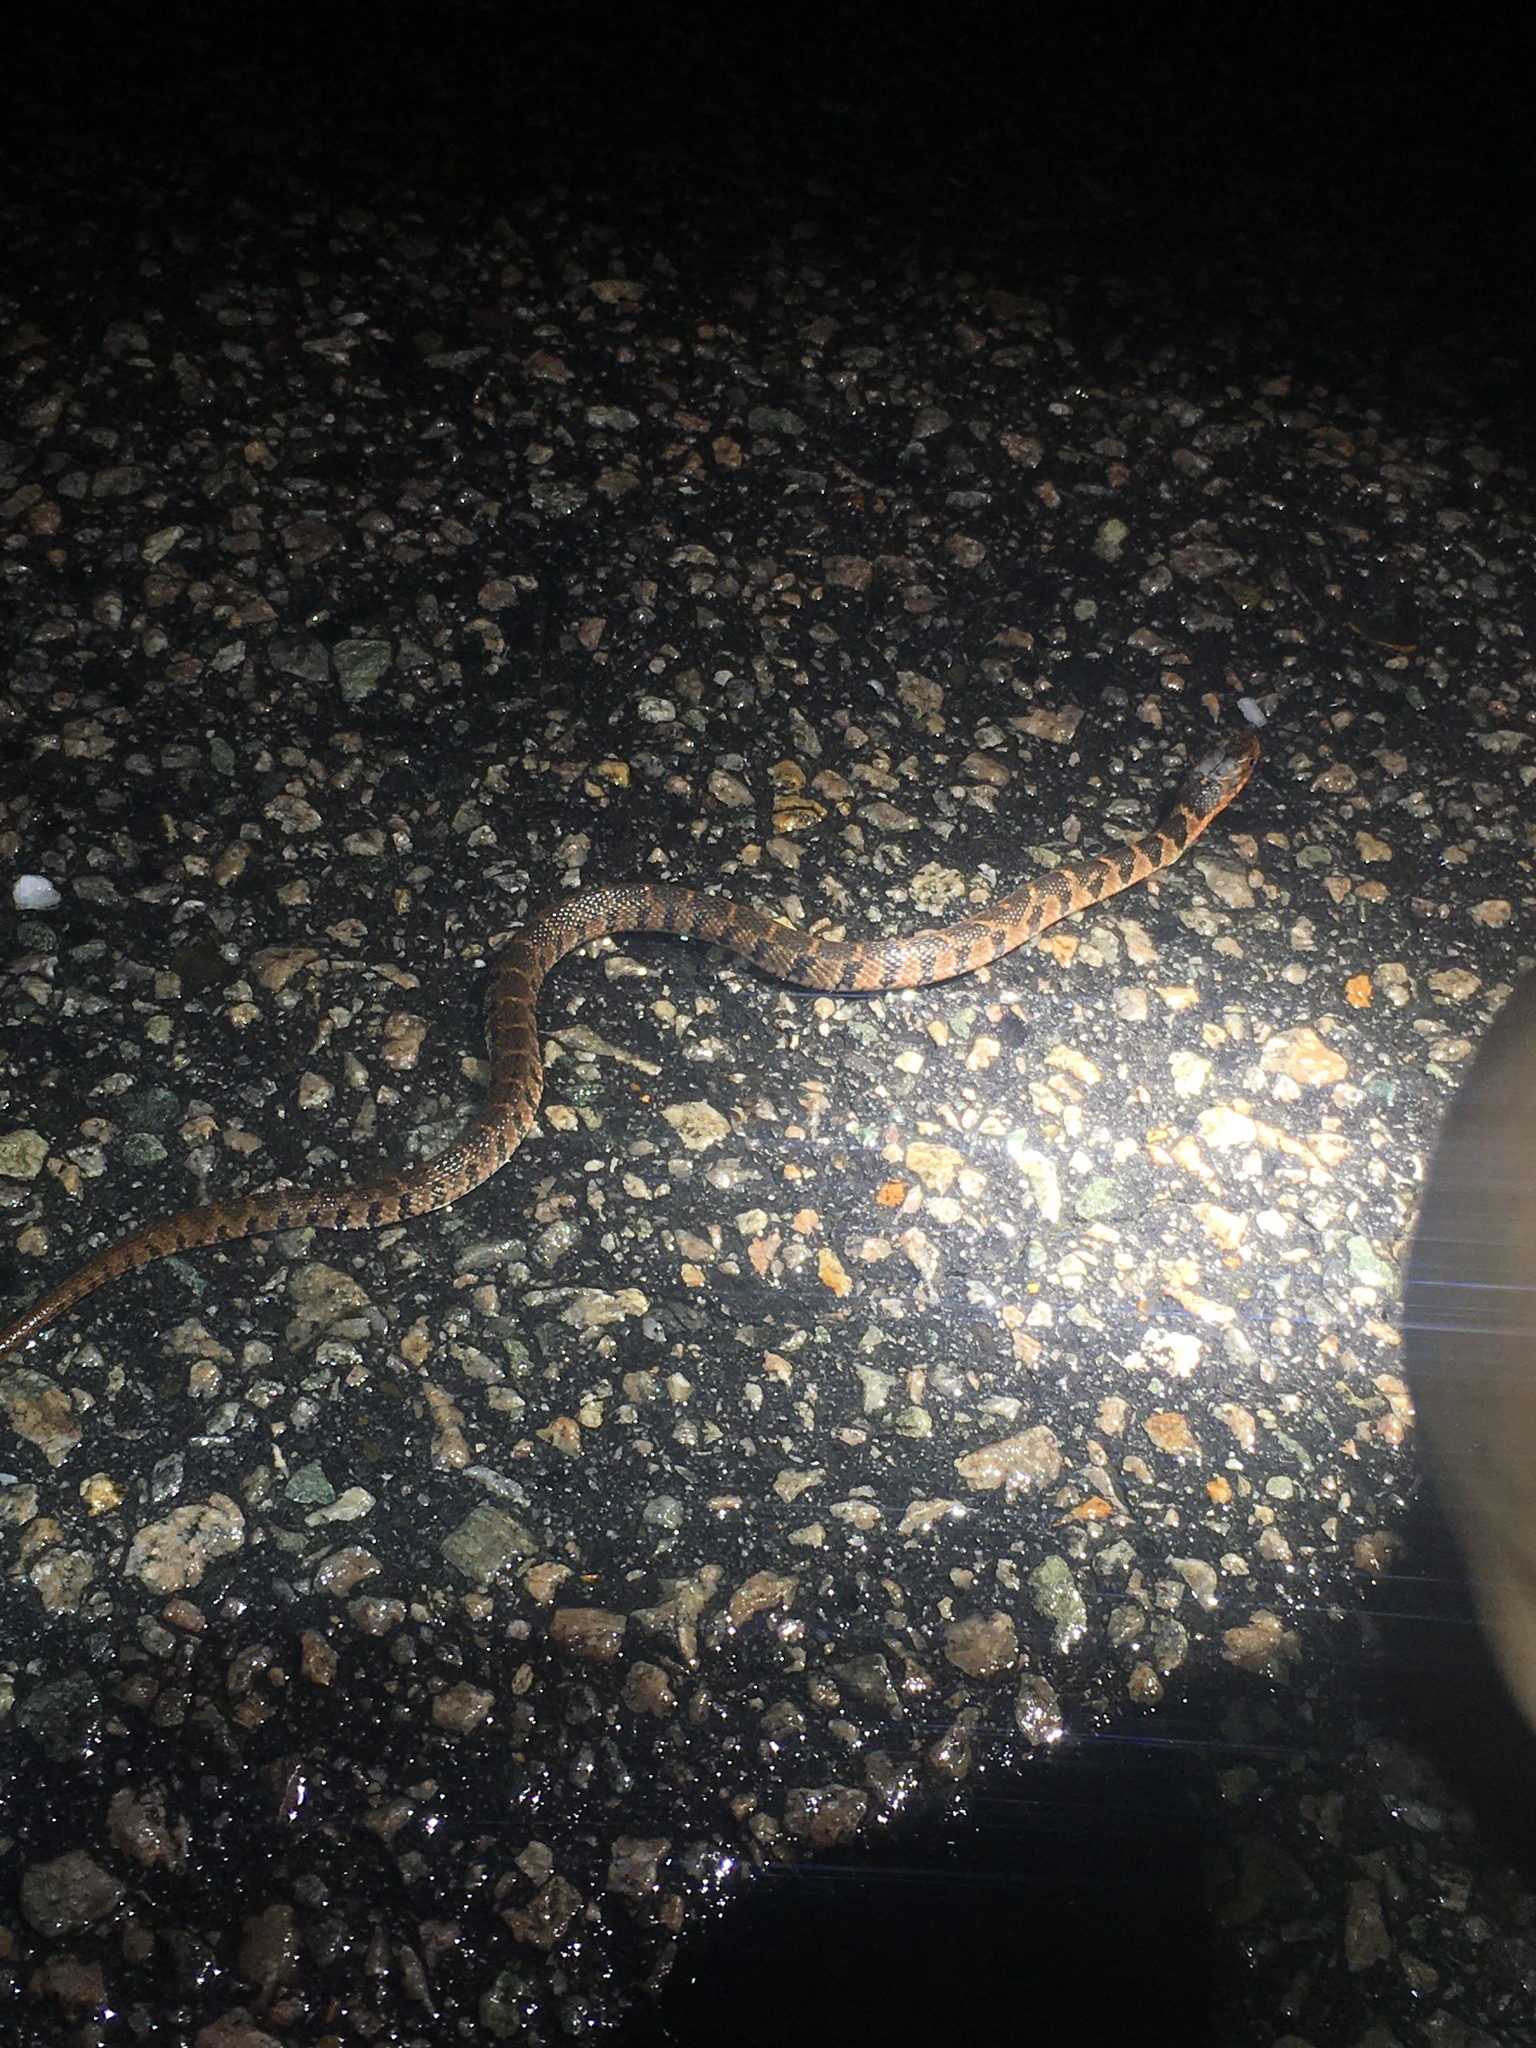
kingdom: Animalia
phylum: Chordata
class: Squamata
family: Colubridae
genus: Nerodia
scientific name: Nerodia erythrogaster
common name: Plainbelly water snake
